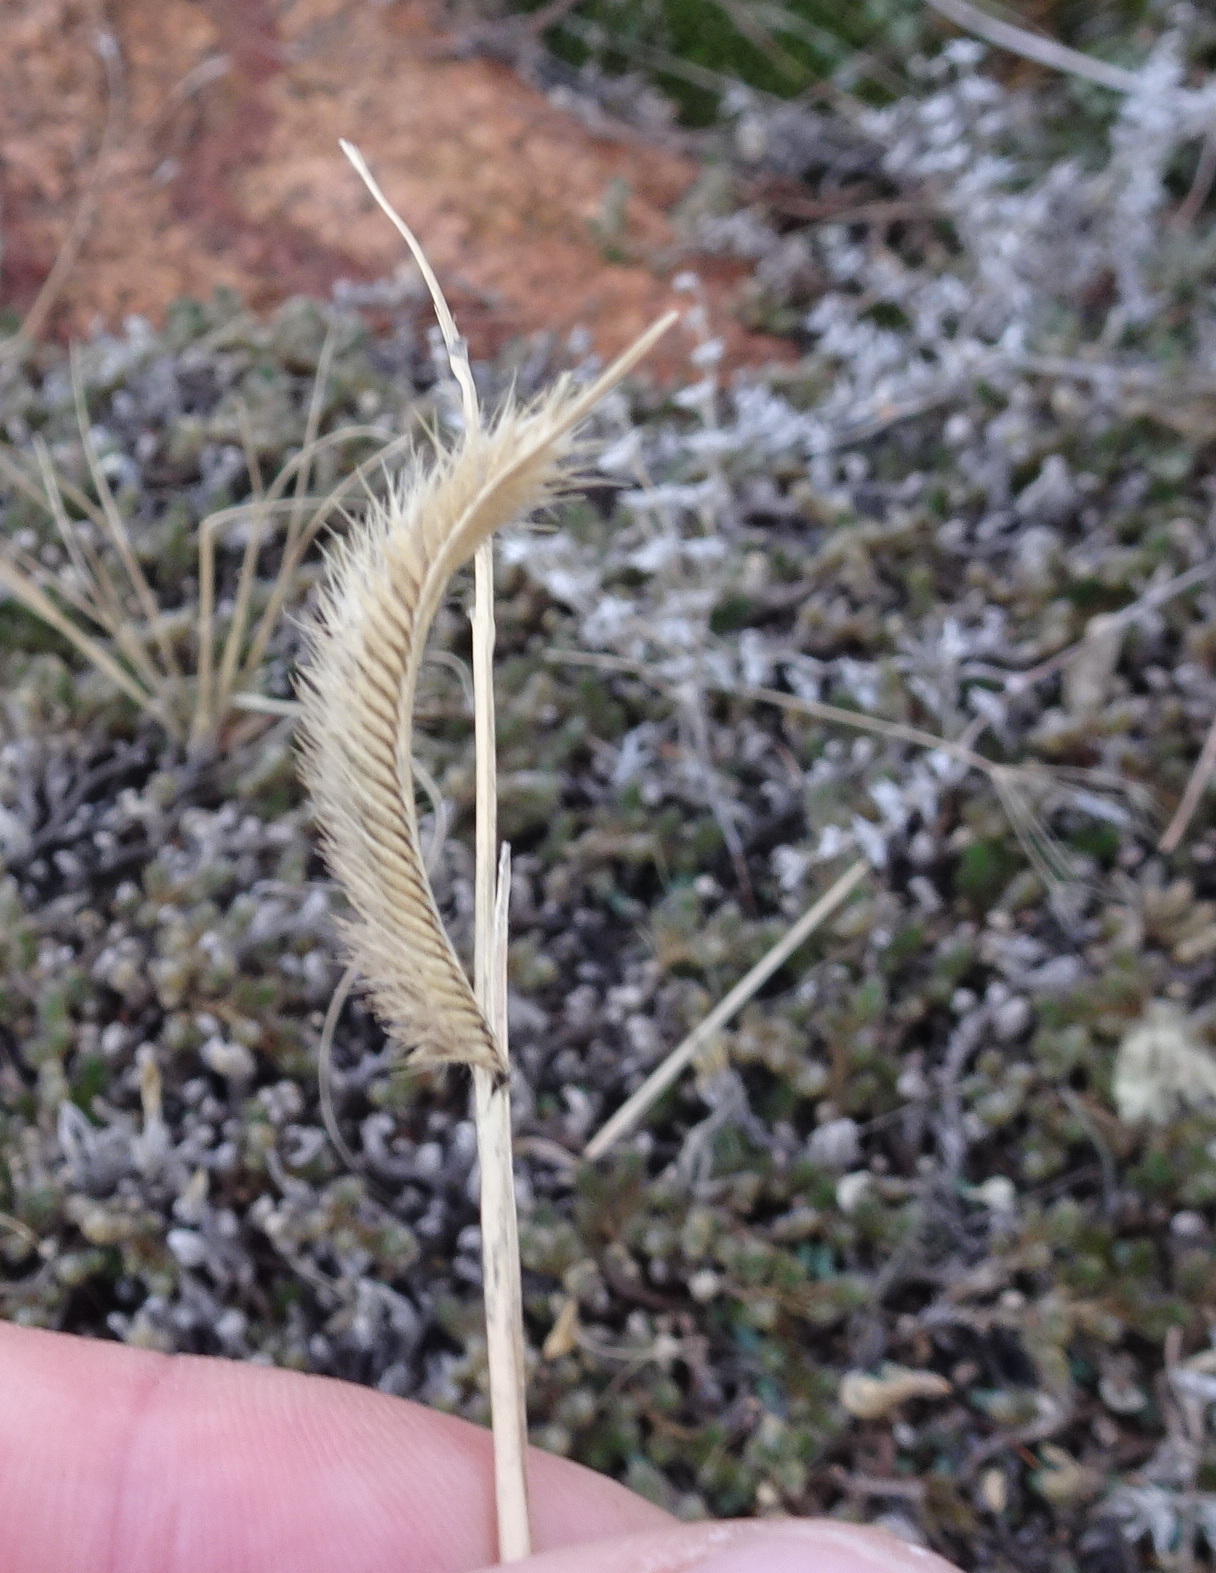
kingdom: Plantae
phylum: Tracheophyta
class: Liliopsida
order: Poales
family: Poaceae
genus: Bouteloua
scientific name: Bouteloua hirsuta
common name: Hairy grama
